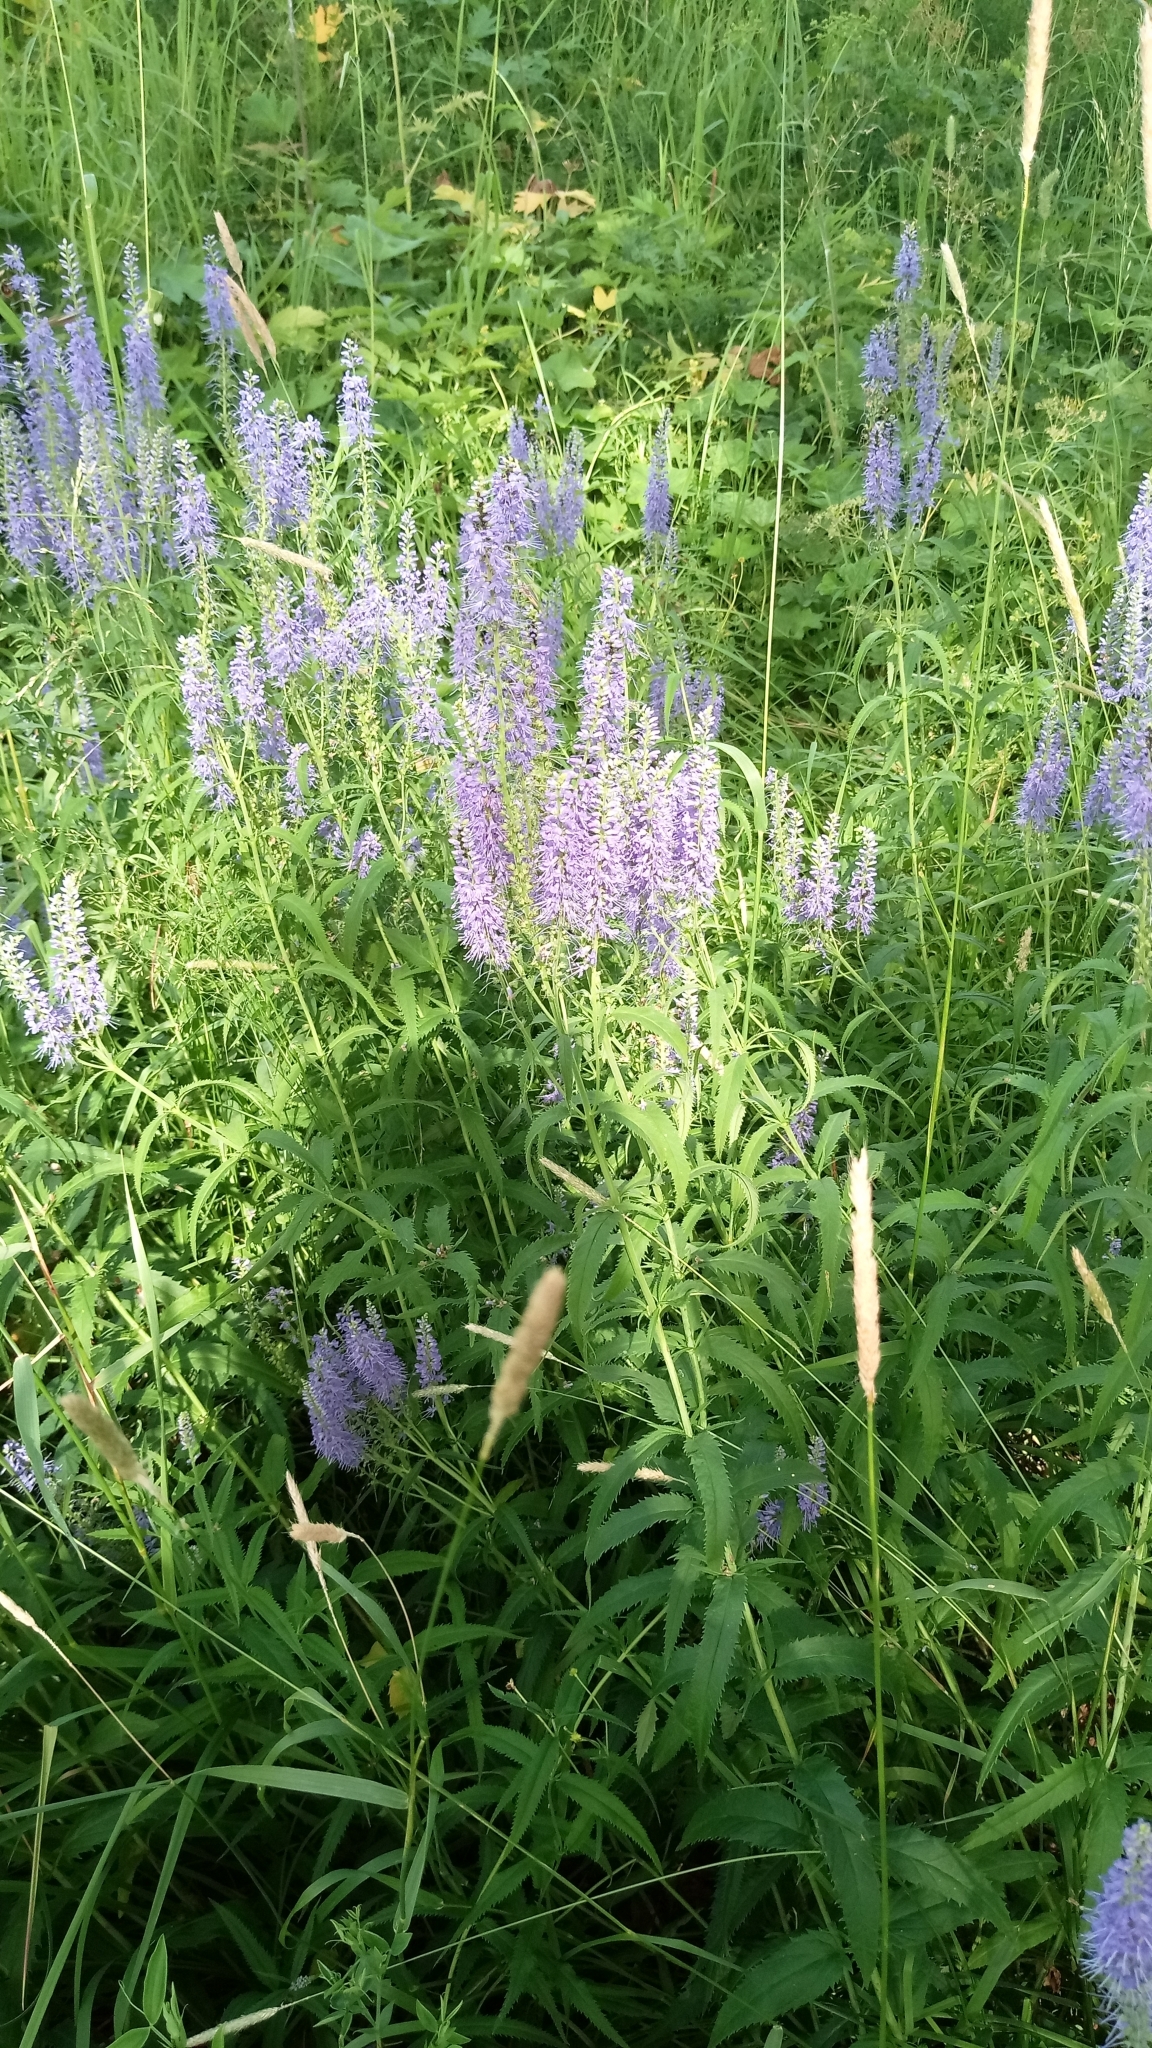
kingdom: Plantae
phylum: Tracheophyta
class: Magnoliopsida
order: Lamiales
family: Plantaginaceae
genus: Veronica
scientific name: Veronica longifolia
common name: Garden speedwell
